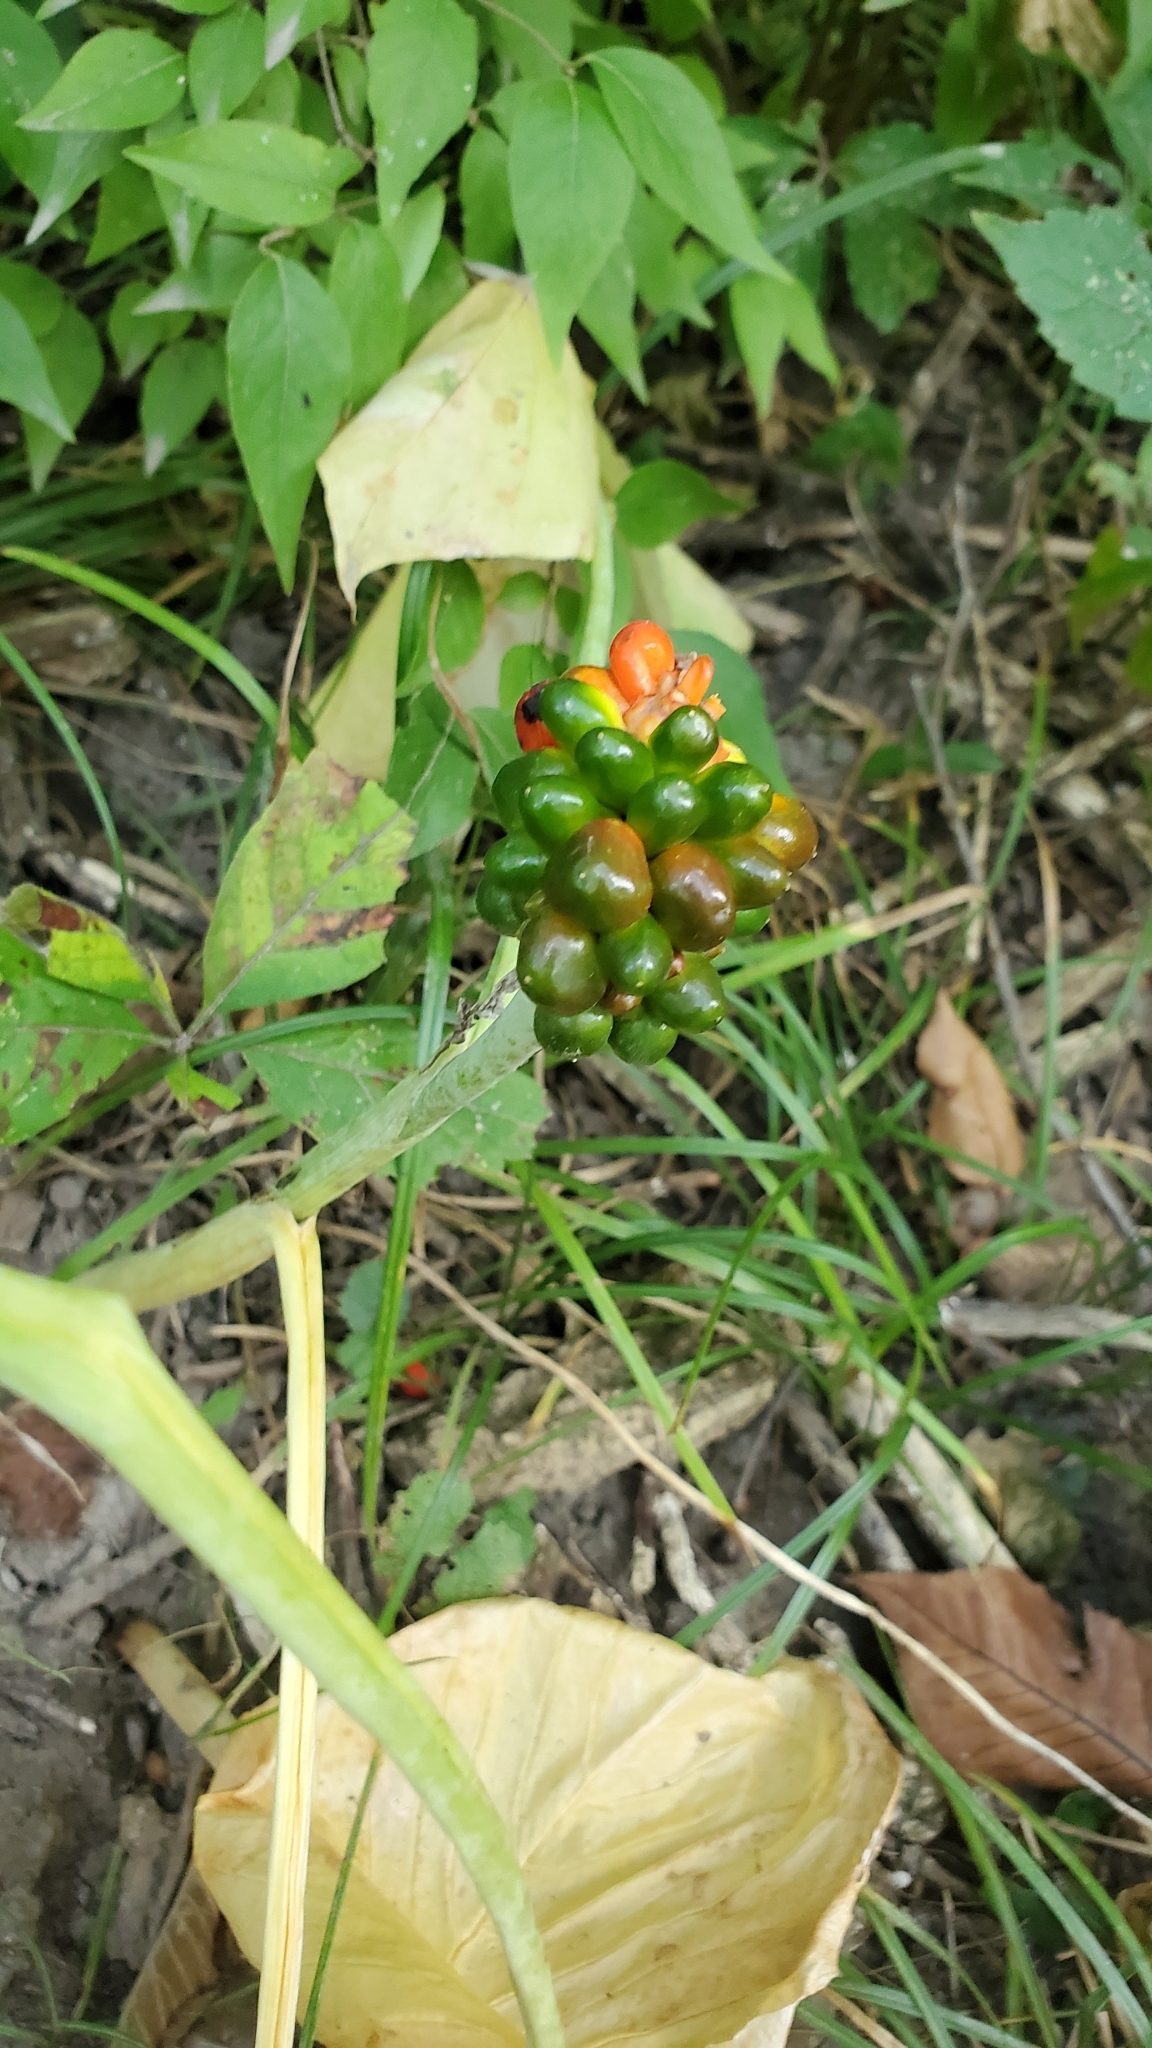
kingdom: Plantae
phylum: Tracheophyta
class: Liliopsida
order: Alismatales
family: Araceae
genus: Arisaema
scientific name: Arisaema triphyllum
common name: Jack-in-the-pulpit
